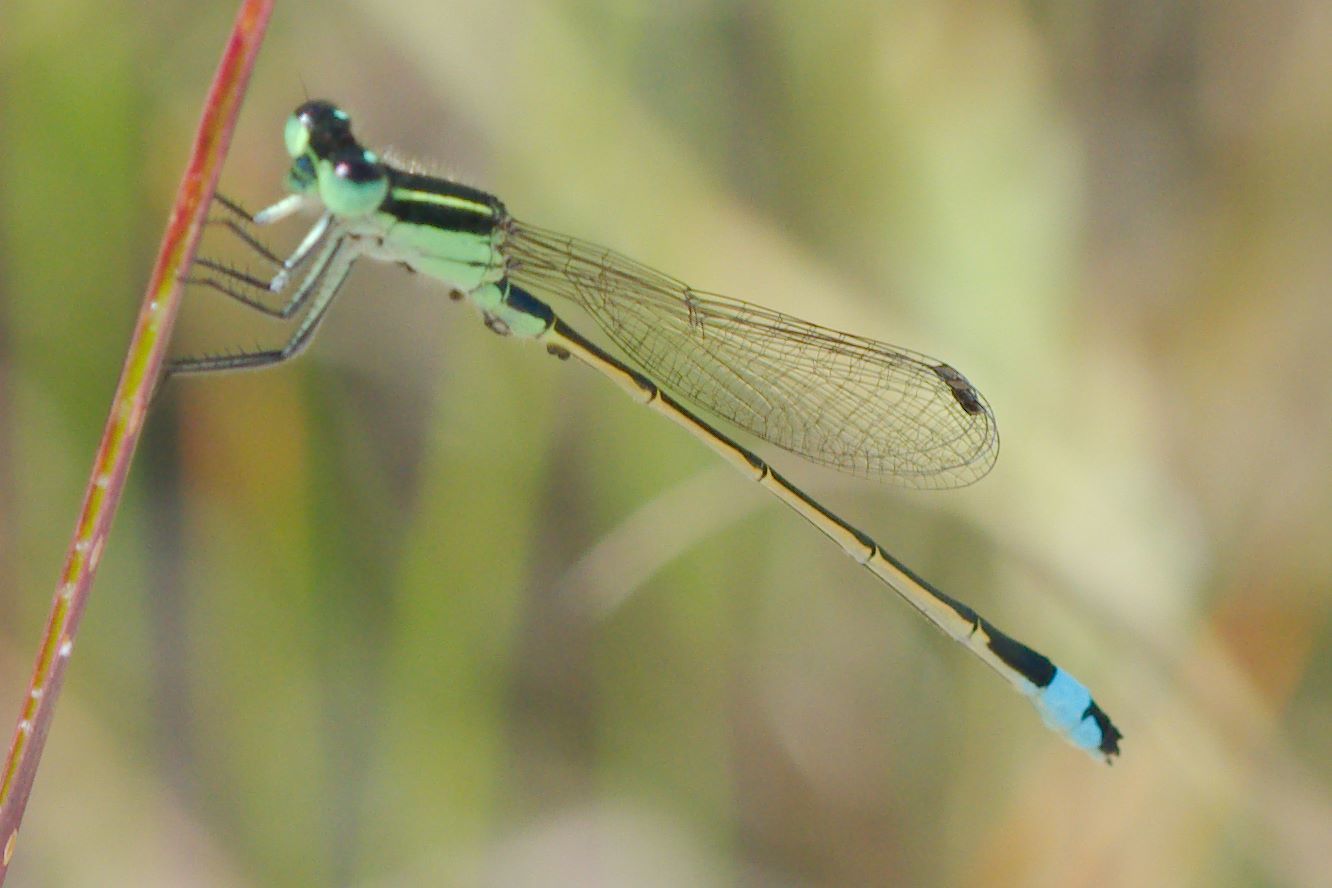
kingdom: Animalia
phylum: Arthropoda
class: Insecta
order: Odonata
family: Coenagrionidae
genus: Ischnura
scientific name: Ischnura ramburii
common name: Rambur's forktail
